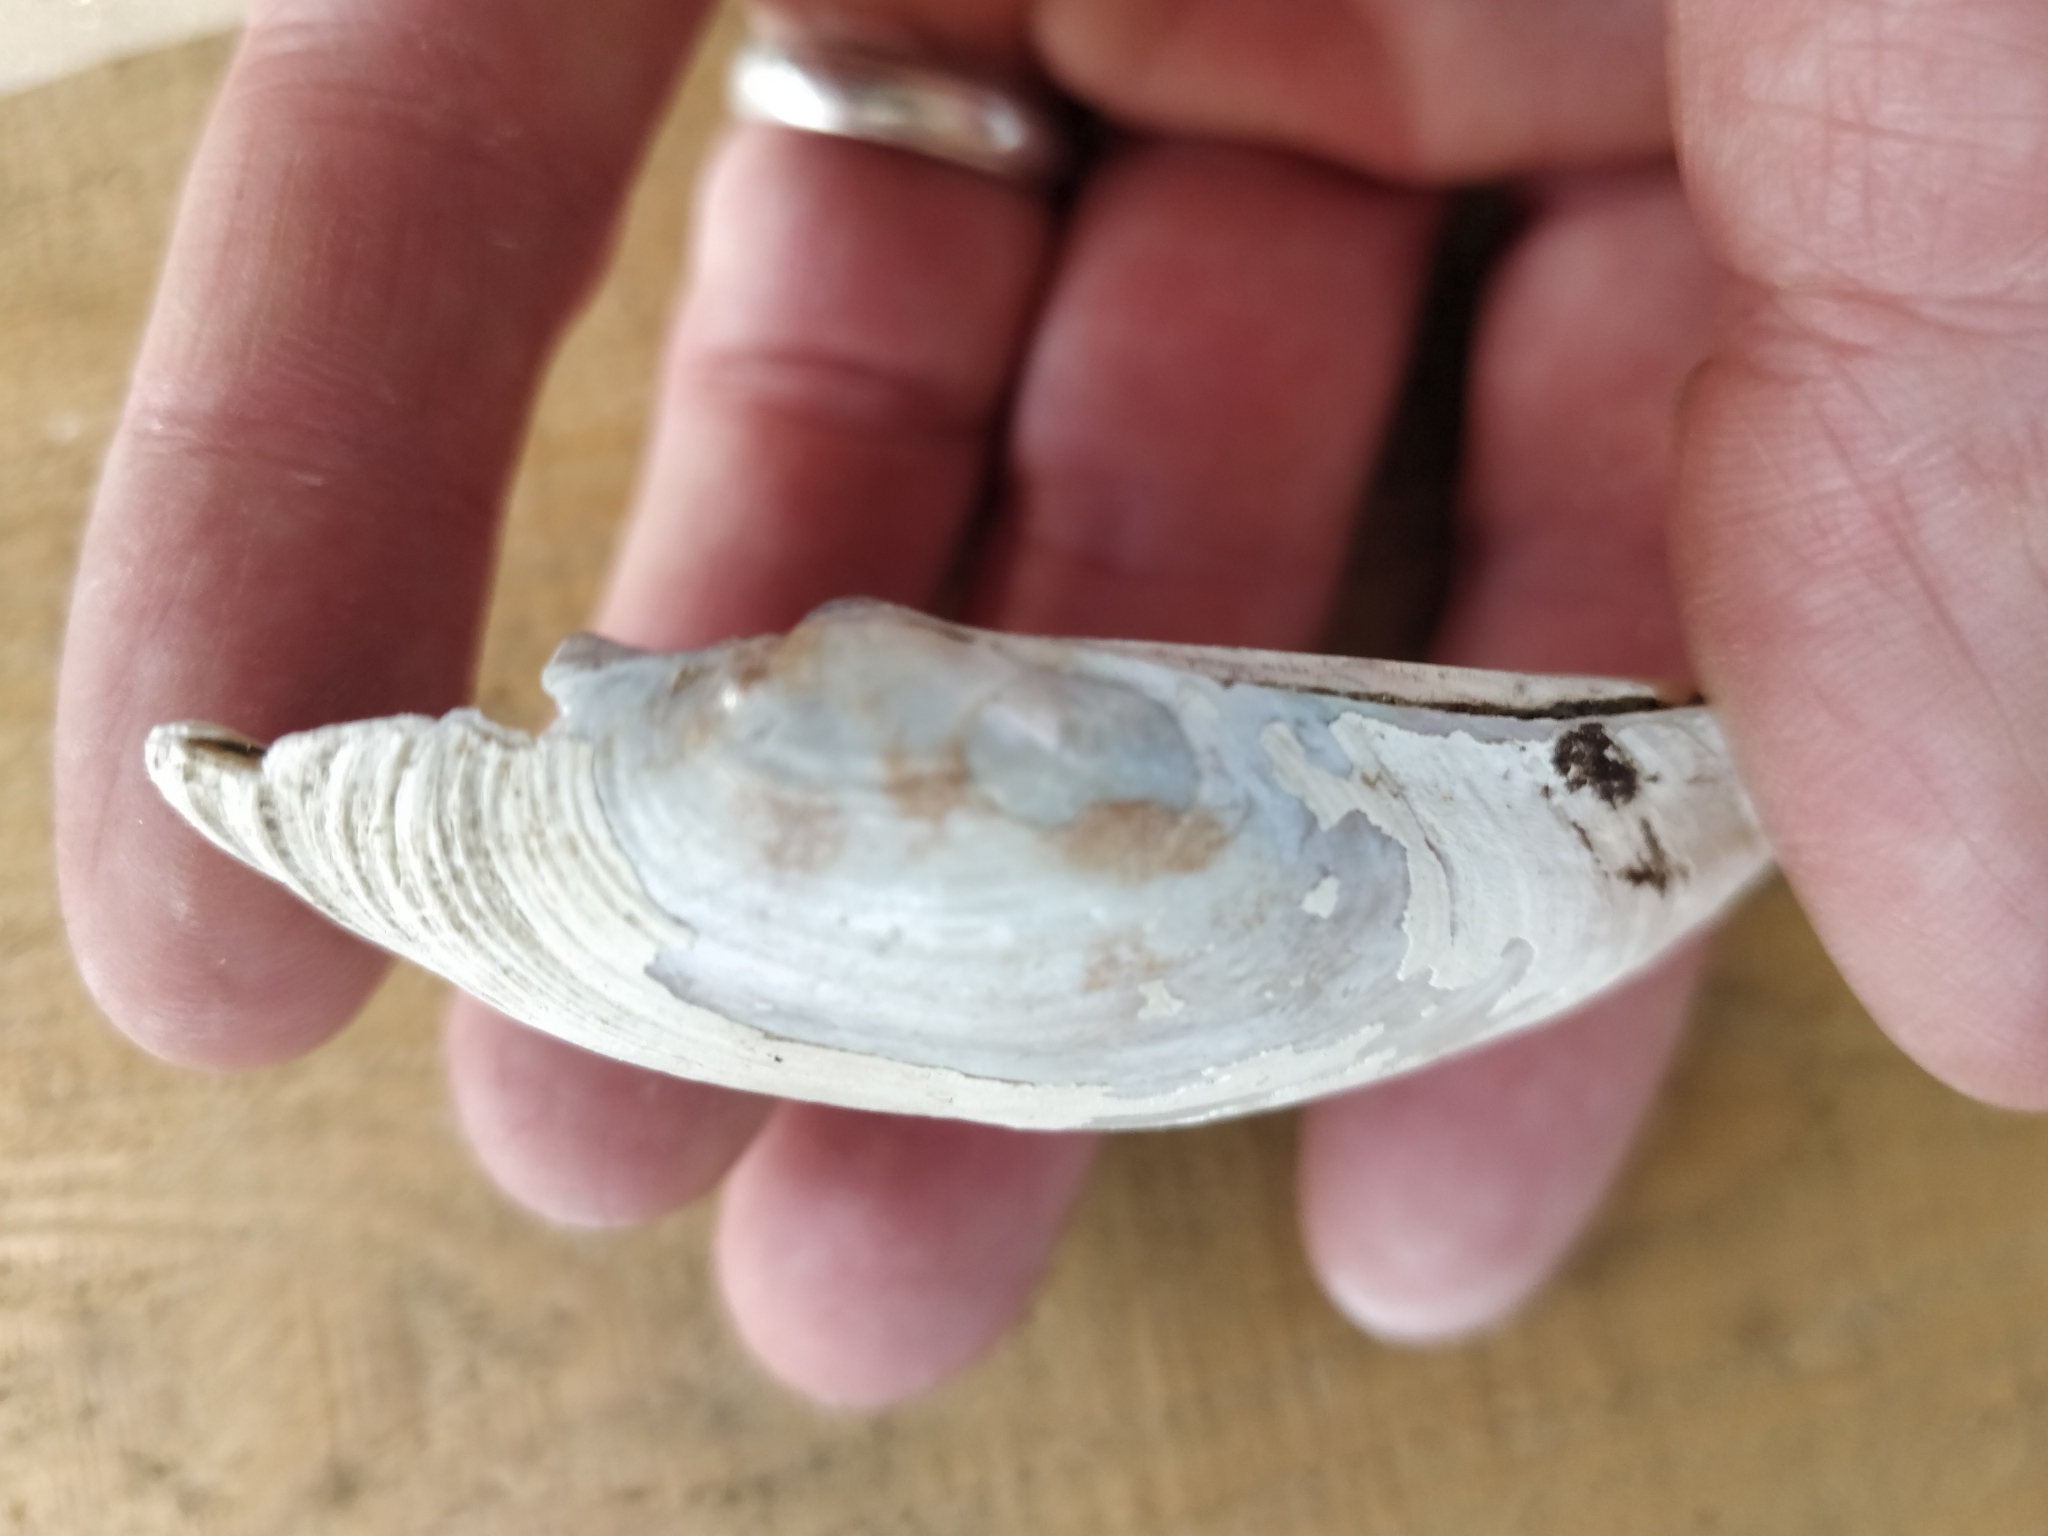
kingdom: Animalia
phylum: Mollusca
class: Bivalvia
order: Unionida
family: Unionidae
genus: Lampsilis
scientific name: Lampsilis siliquoidea
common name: Fatmucket
